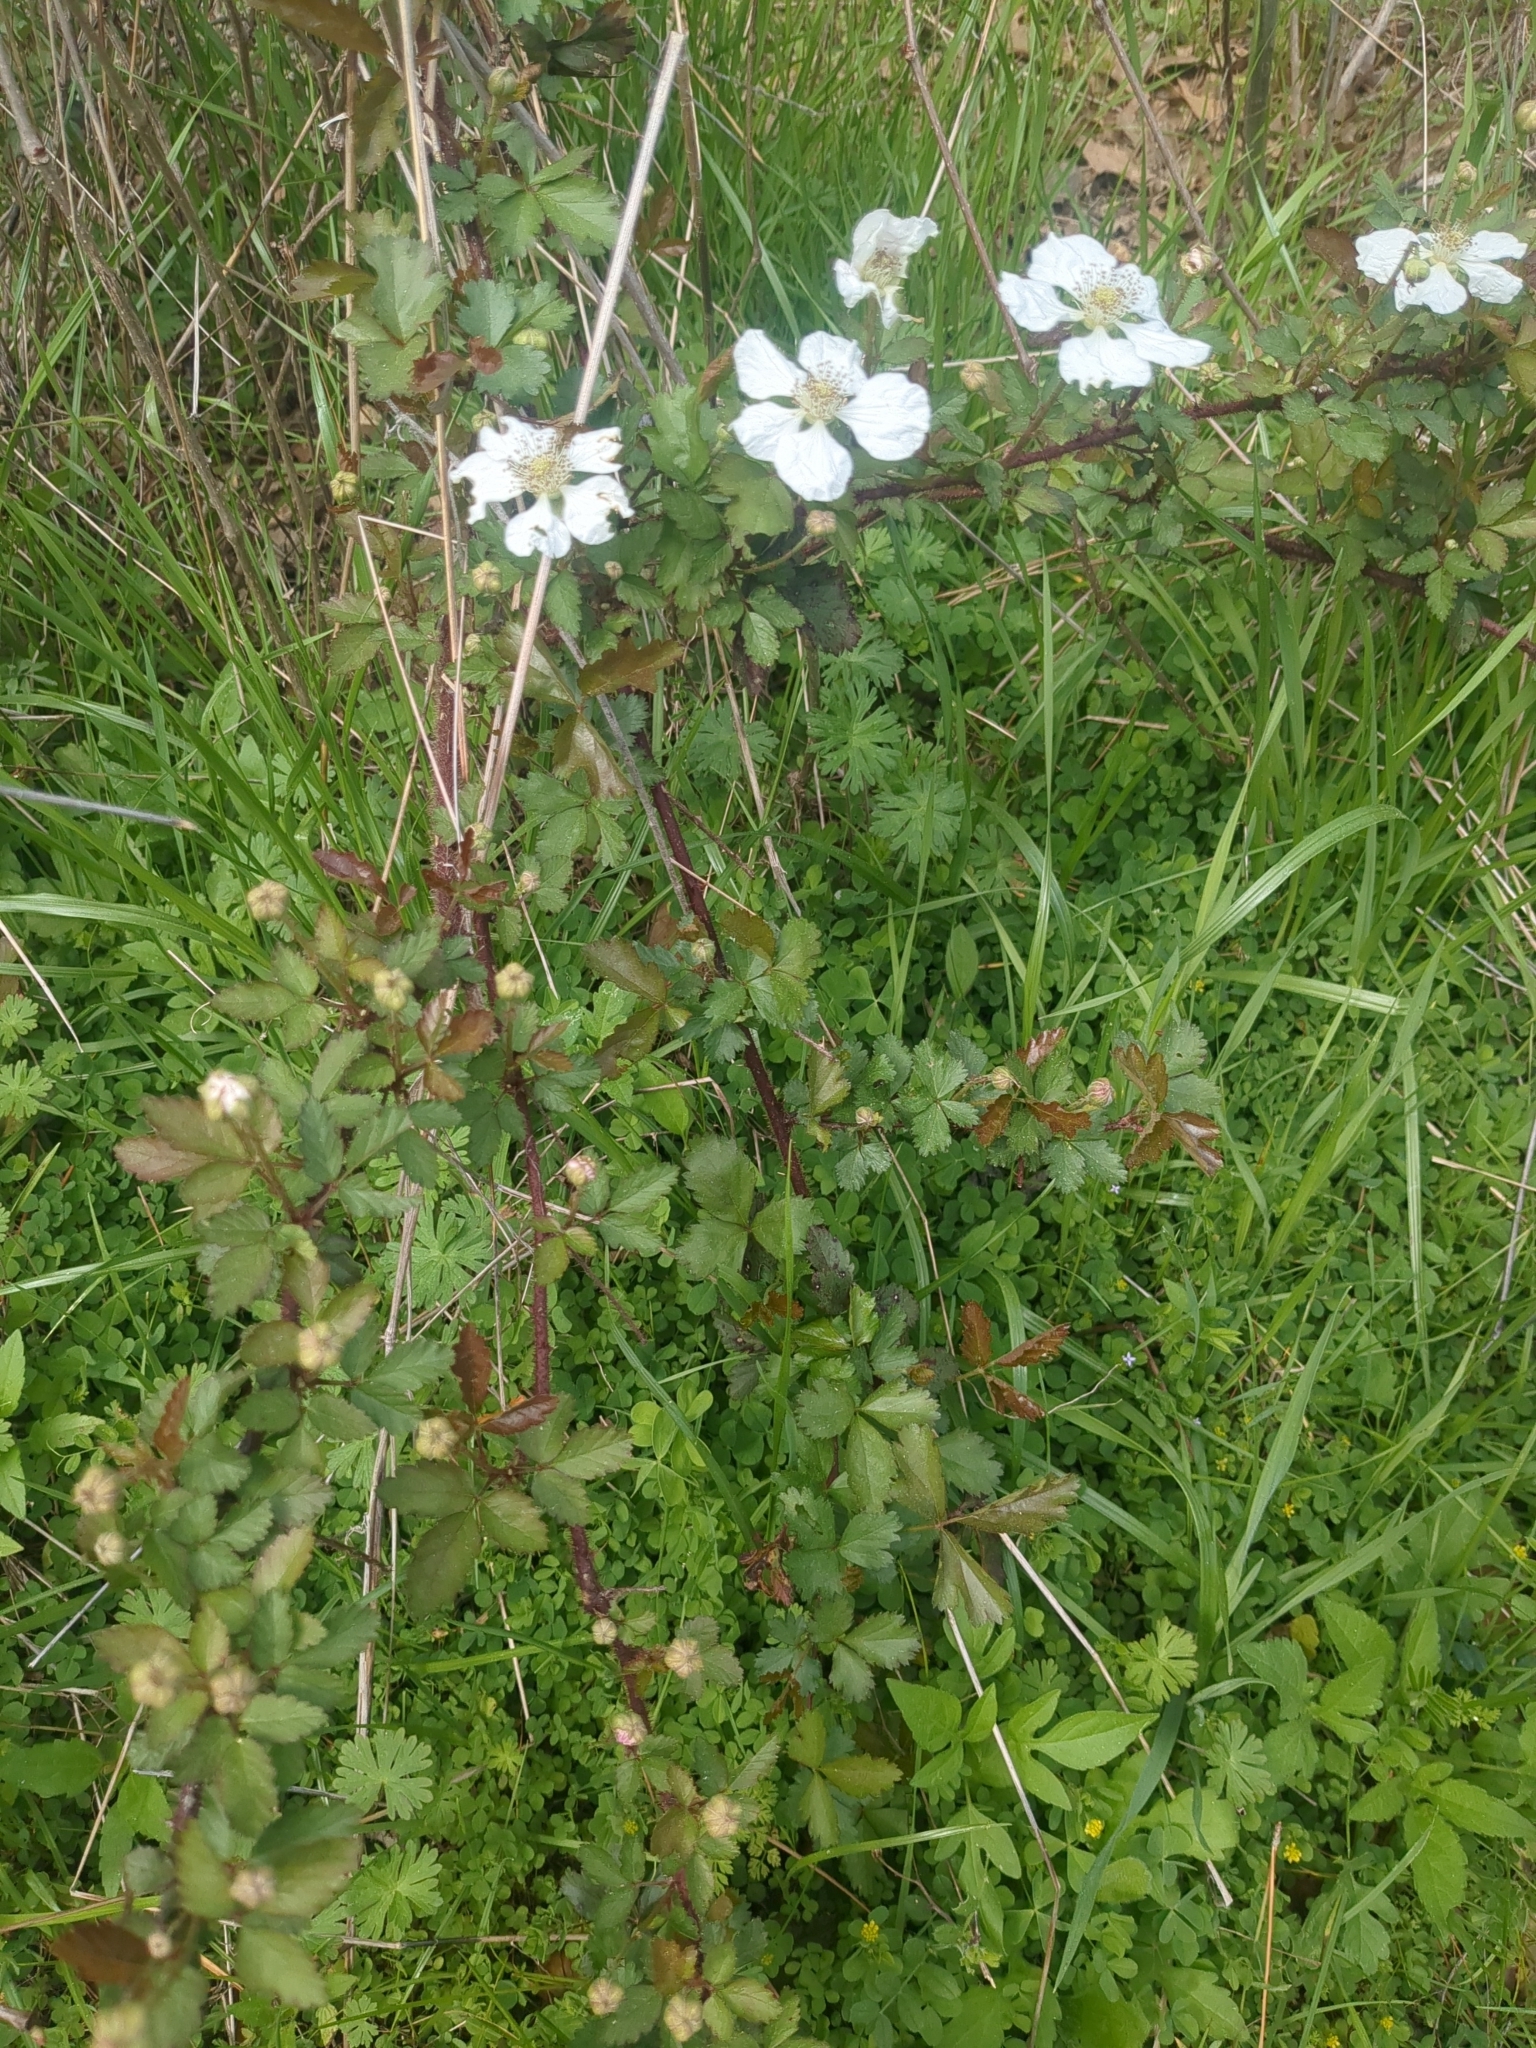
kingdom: Plantae
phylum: Tracheophyta
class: Magnoliopsida
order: Rosales
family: Rosaceae
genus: Rubus
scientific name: Rubus trivialis
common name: Southern dewberry
